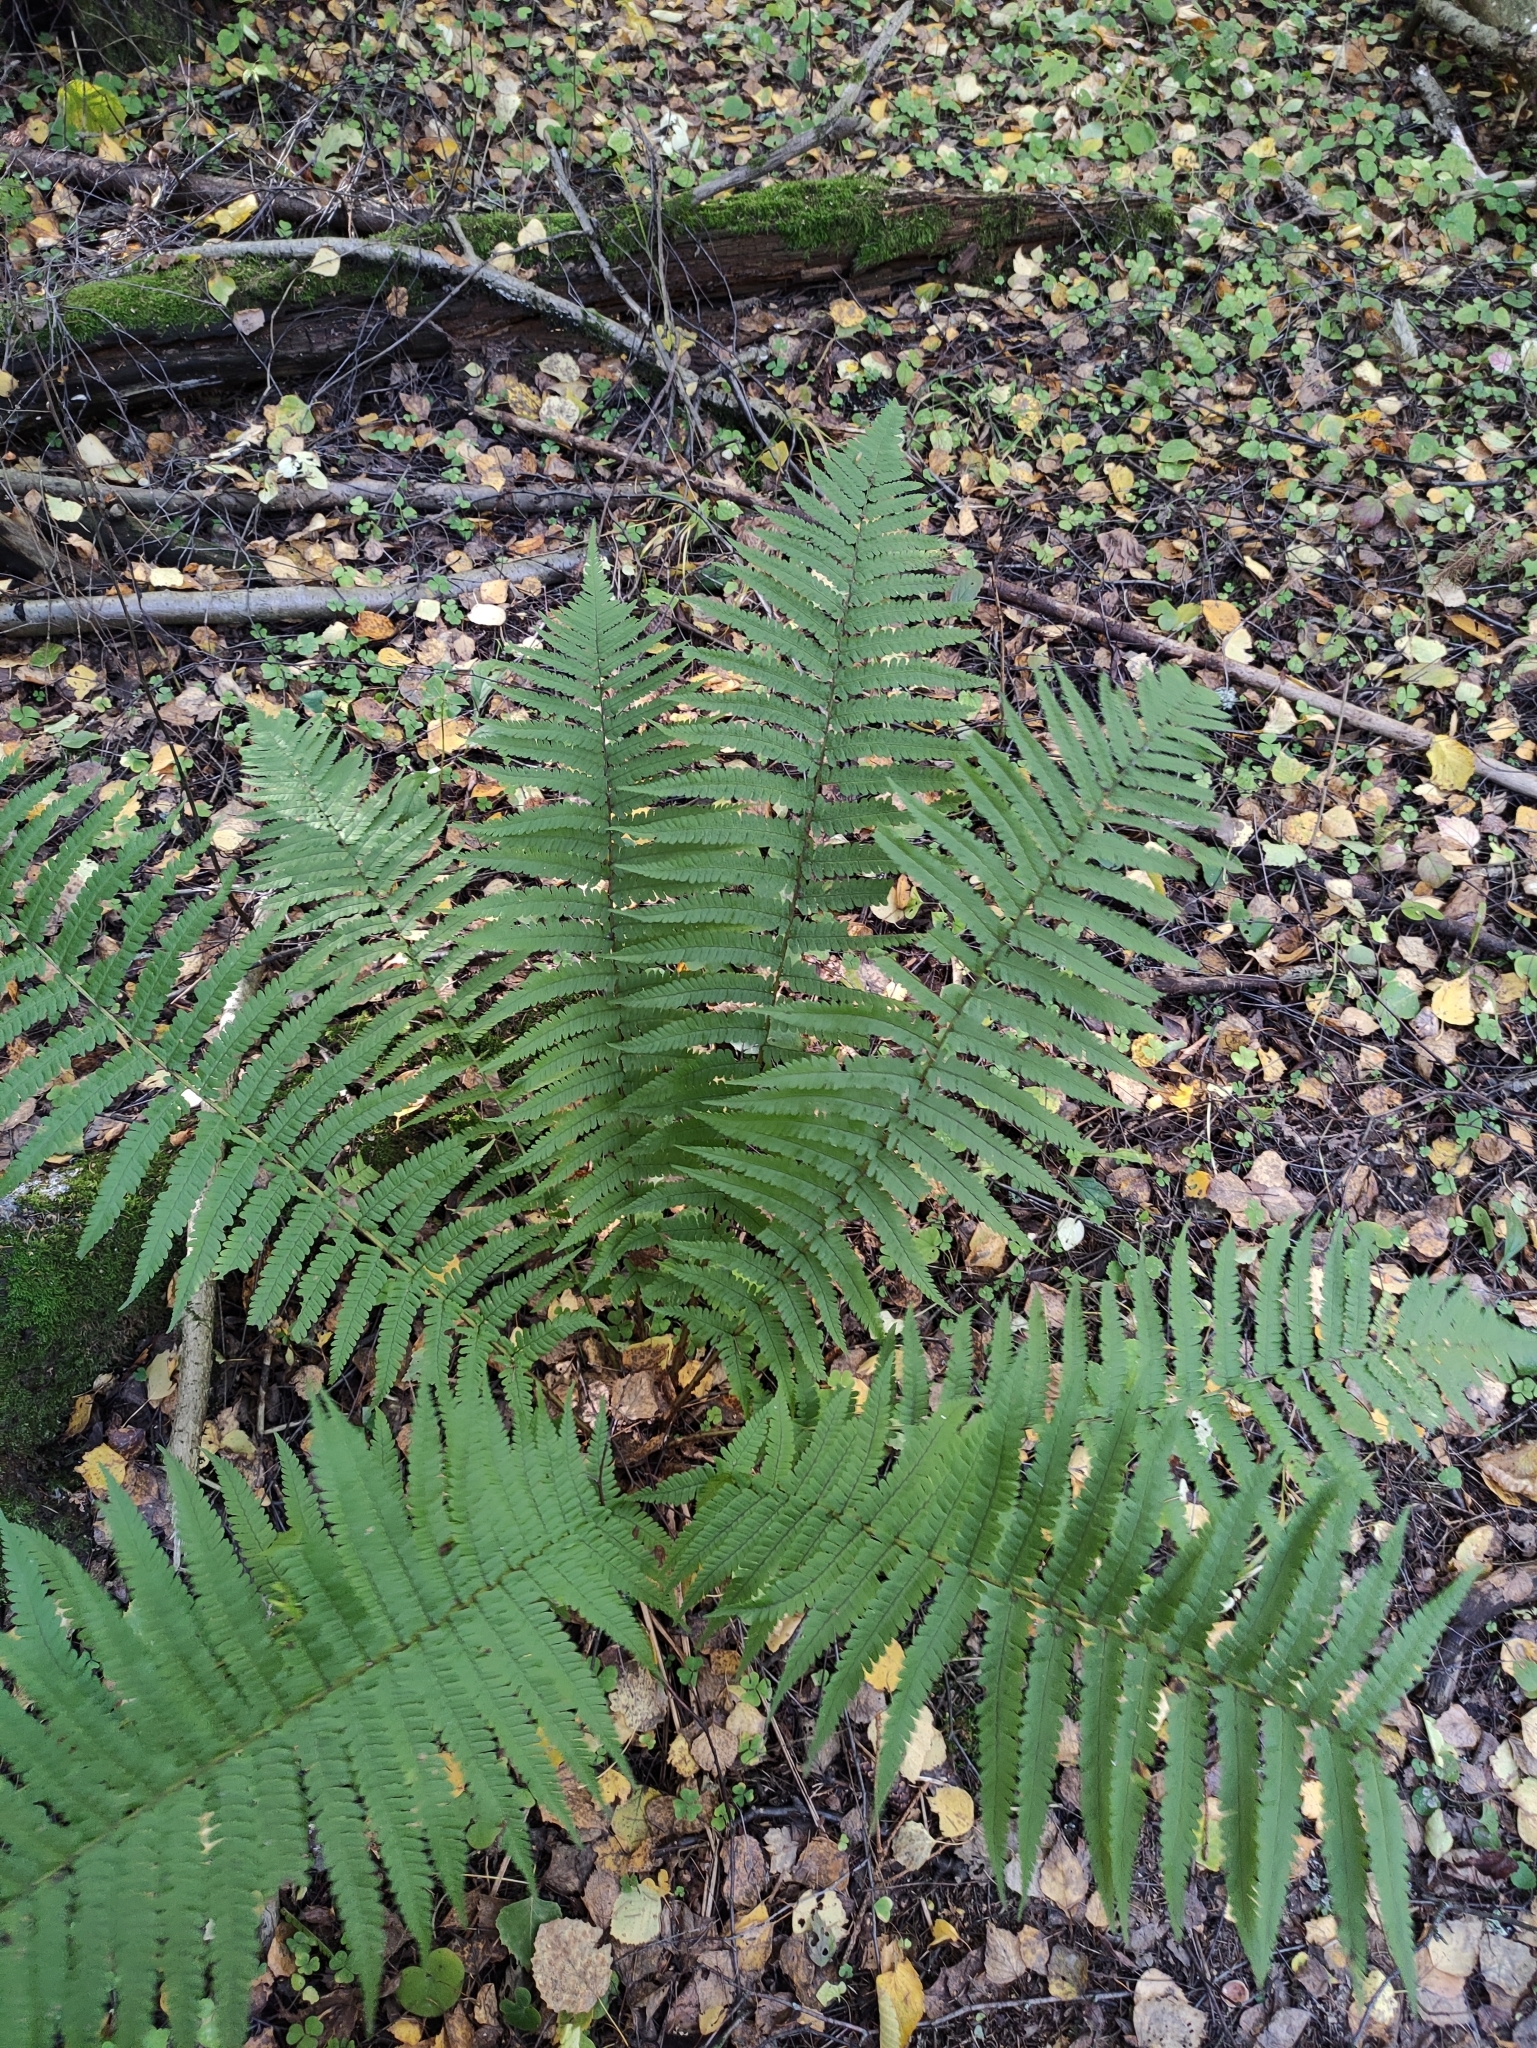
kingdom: Plantae
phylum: Tracheophyta
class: Polypodiopsida
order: Polypodiales
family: Dryopteridaceae
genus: Dryopteris
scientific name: Dryopteris filix-mas
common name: Male fern
